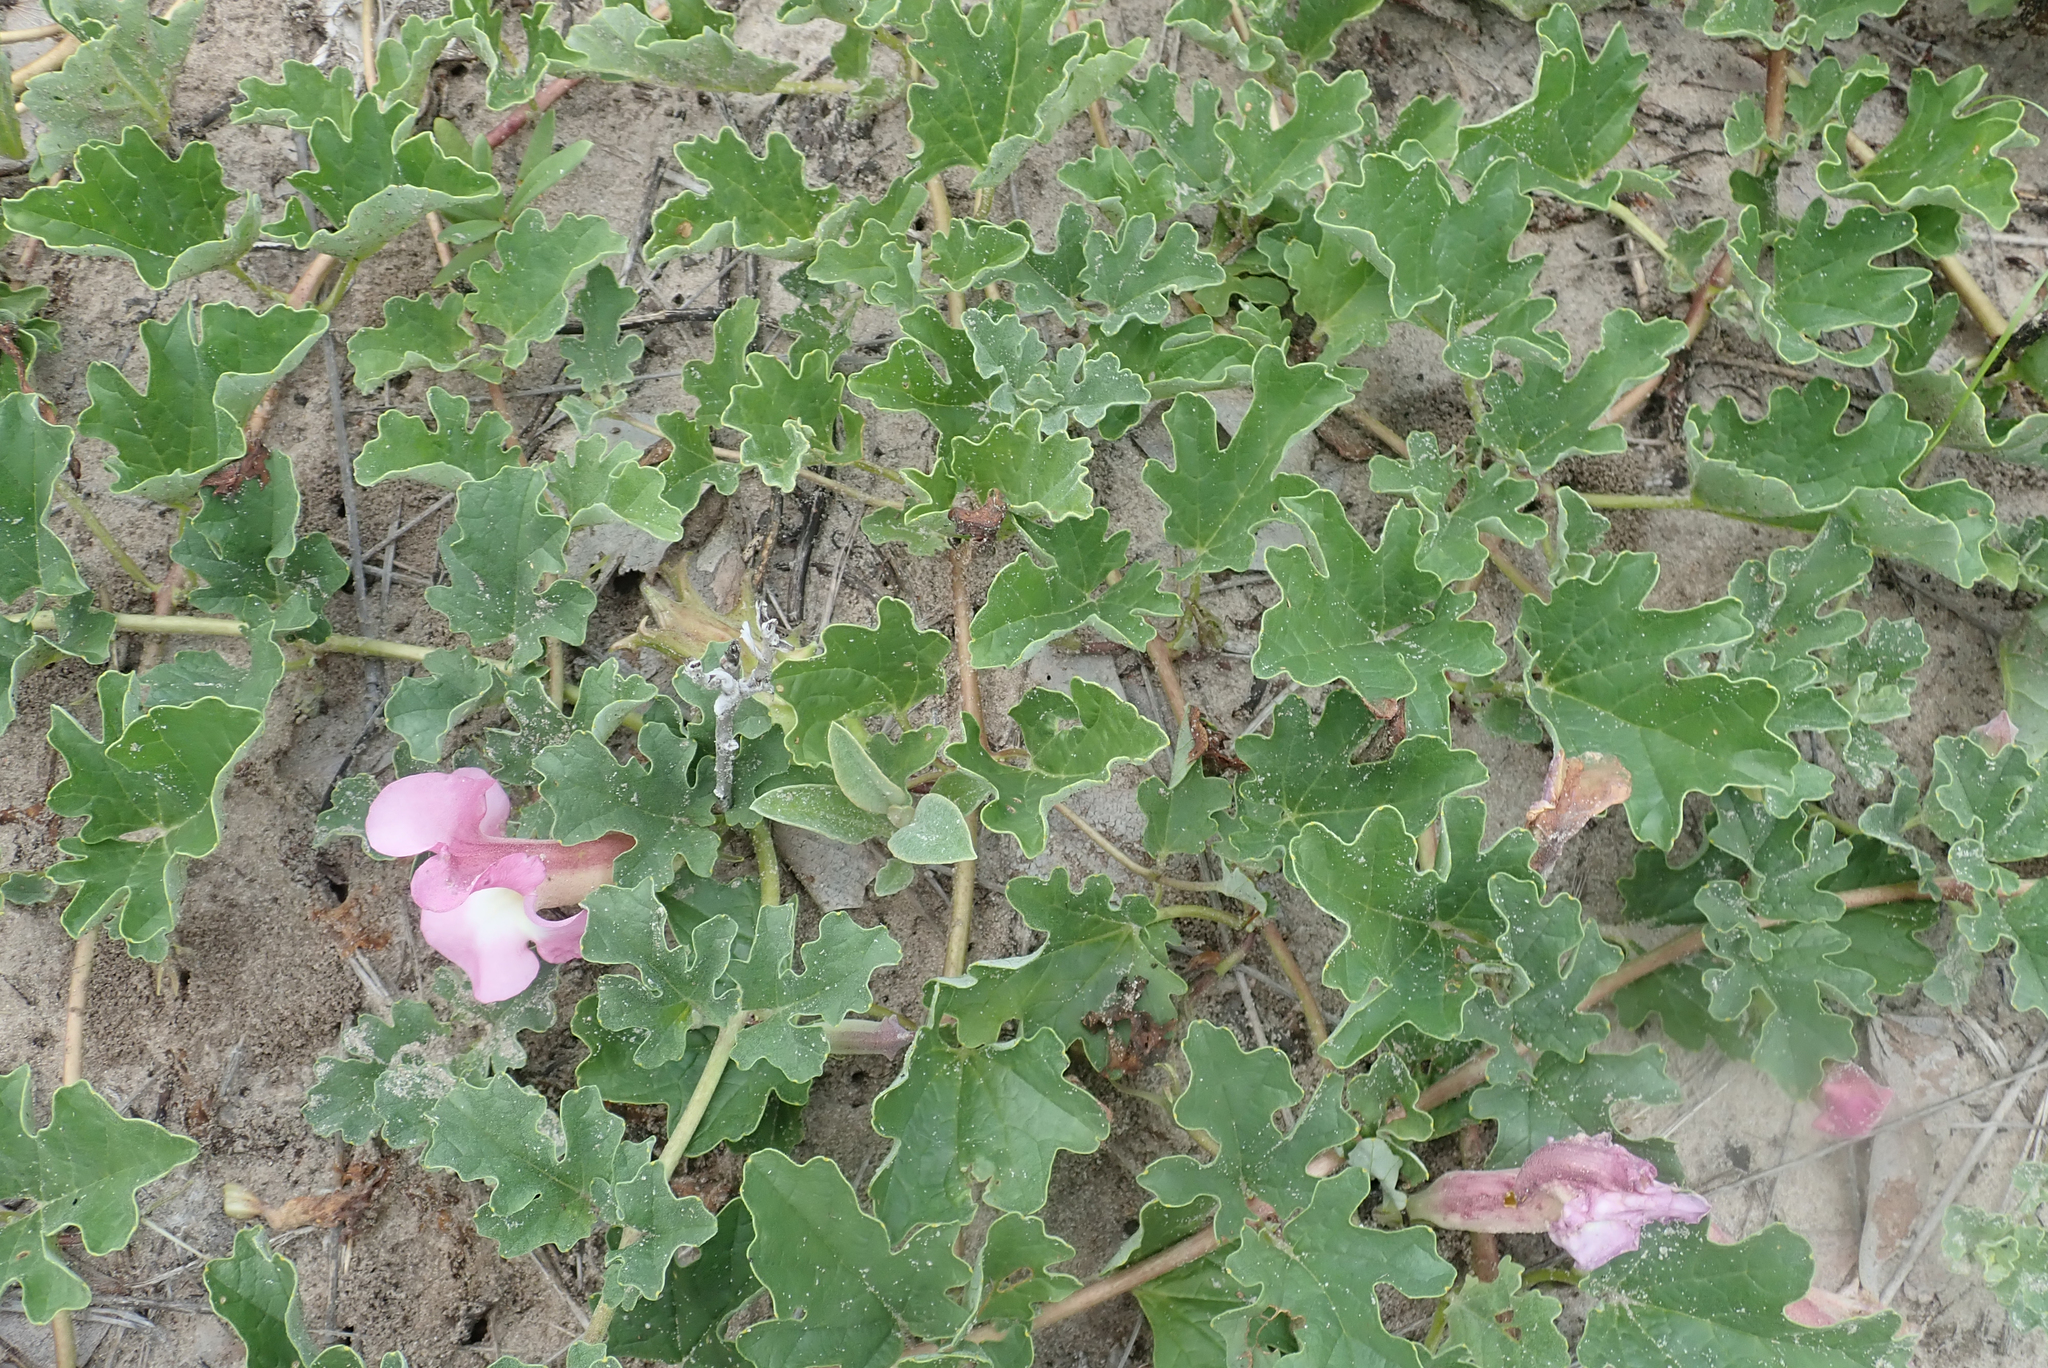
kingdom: Plantae
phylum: Tracheophyta
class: Magnoliopsida
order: Lamiales
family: Pedaliaceae
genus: Harpagophytum
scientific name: Harpagophytum zeyheri
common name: Grappleplant
